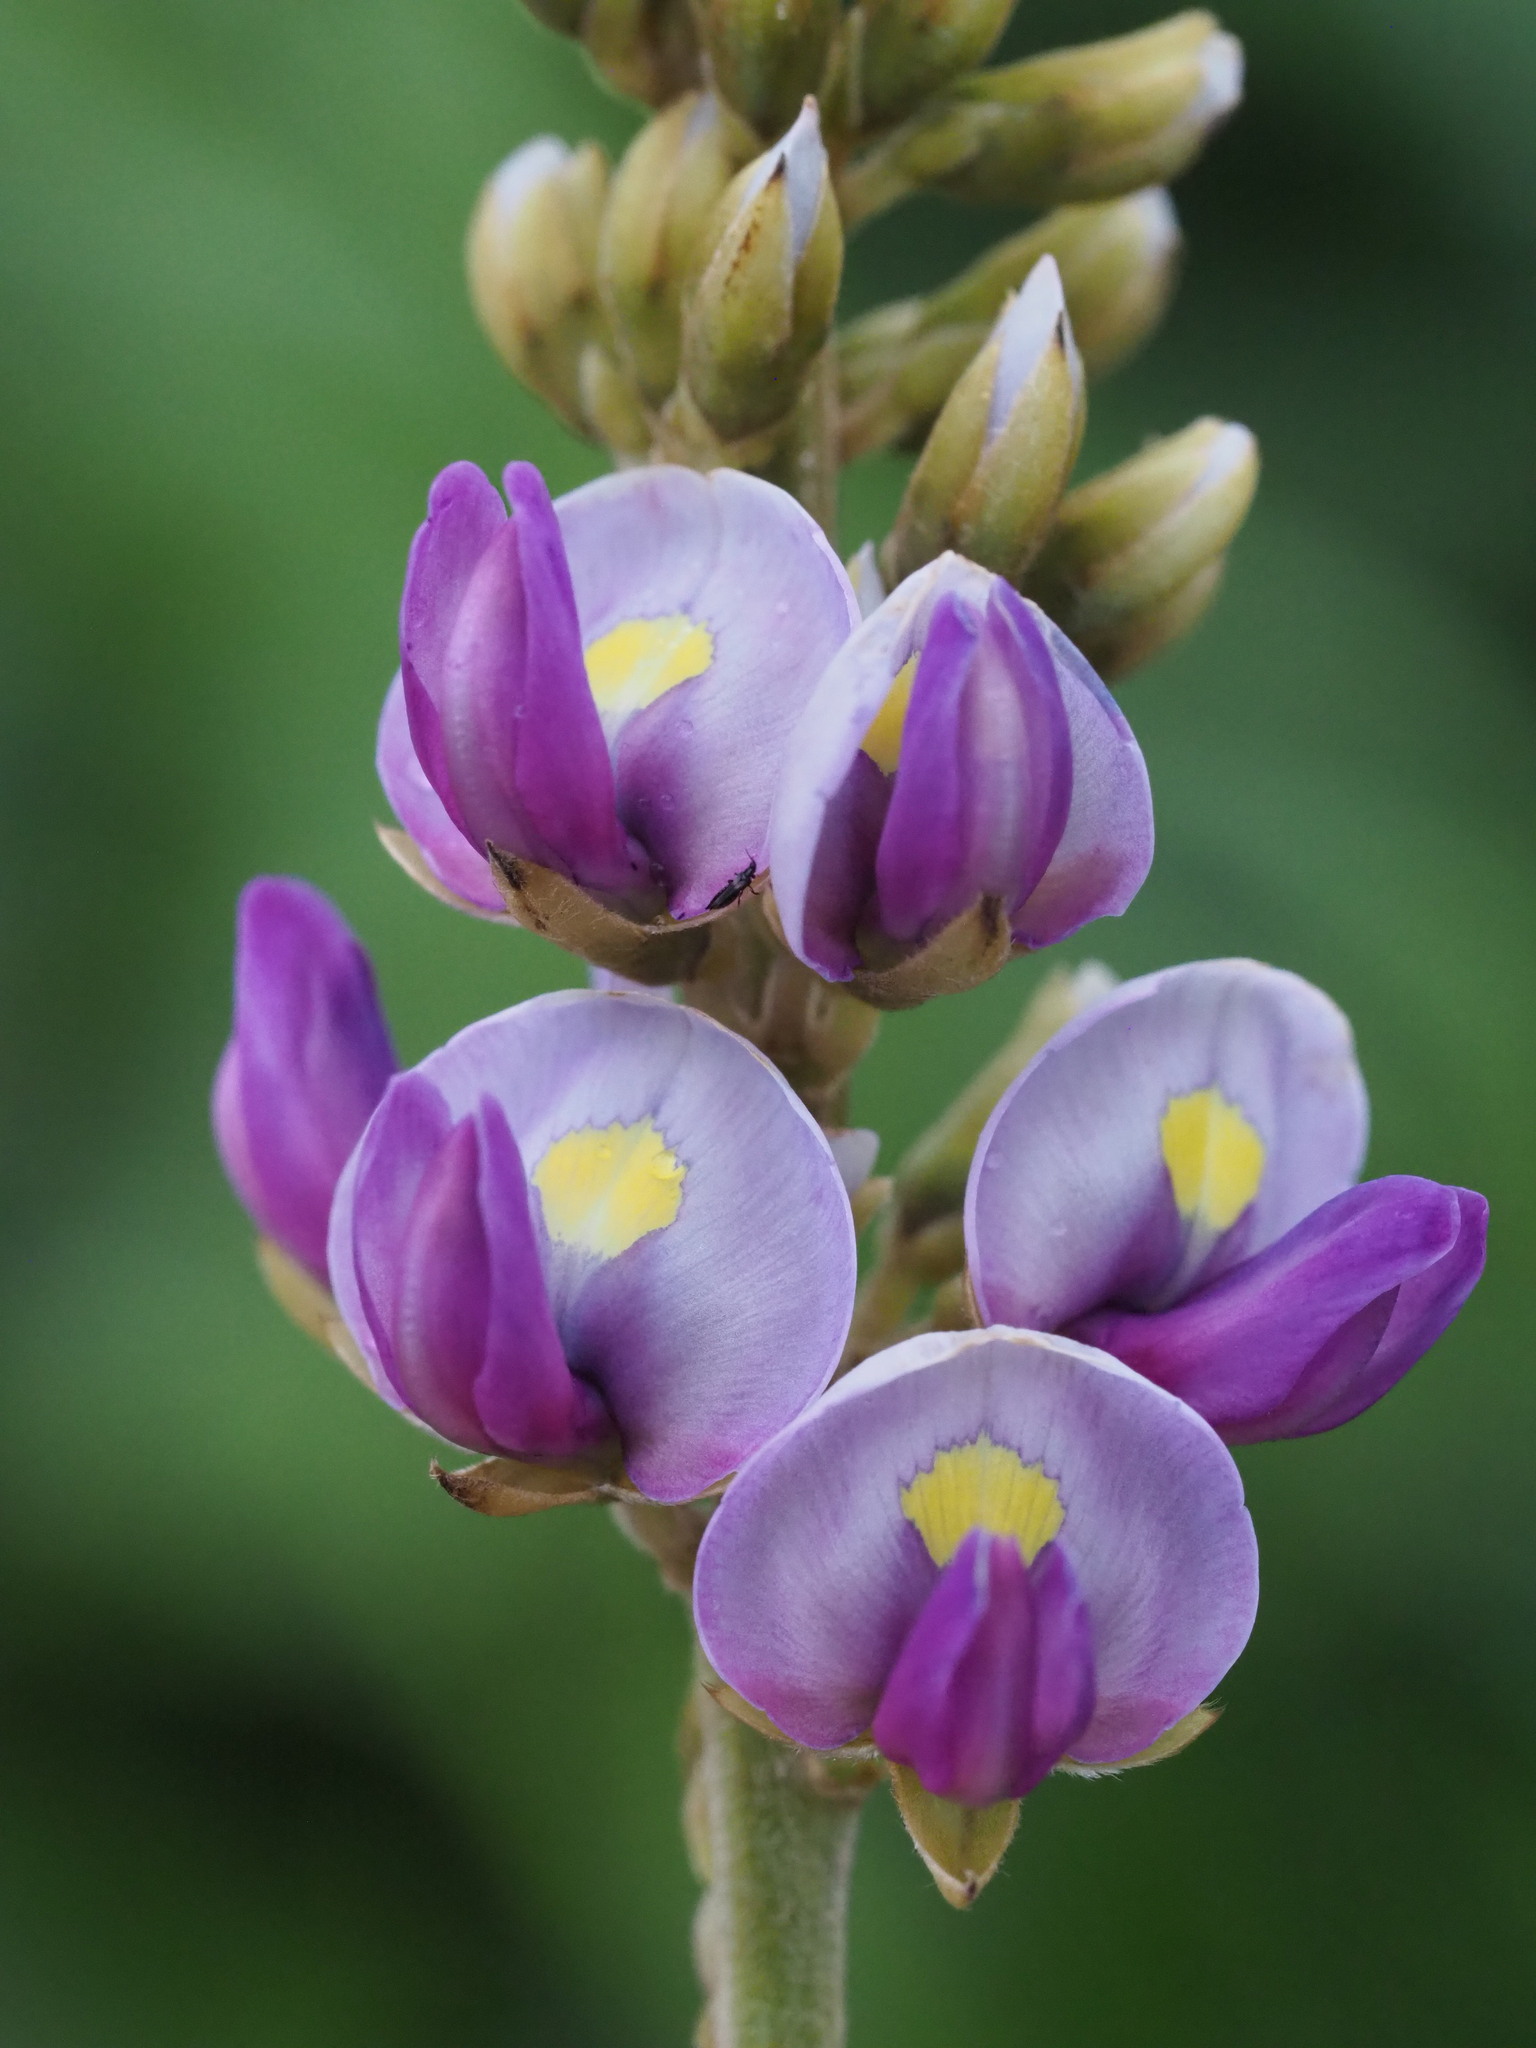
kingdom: Plantae
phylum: Tracheophyta
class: Magnoliopsida
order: Fabales
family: Fabaceae
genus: Pueraria
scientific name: Pueraria montana
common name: Kudzu
